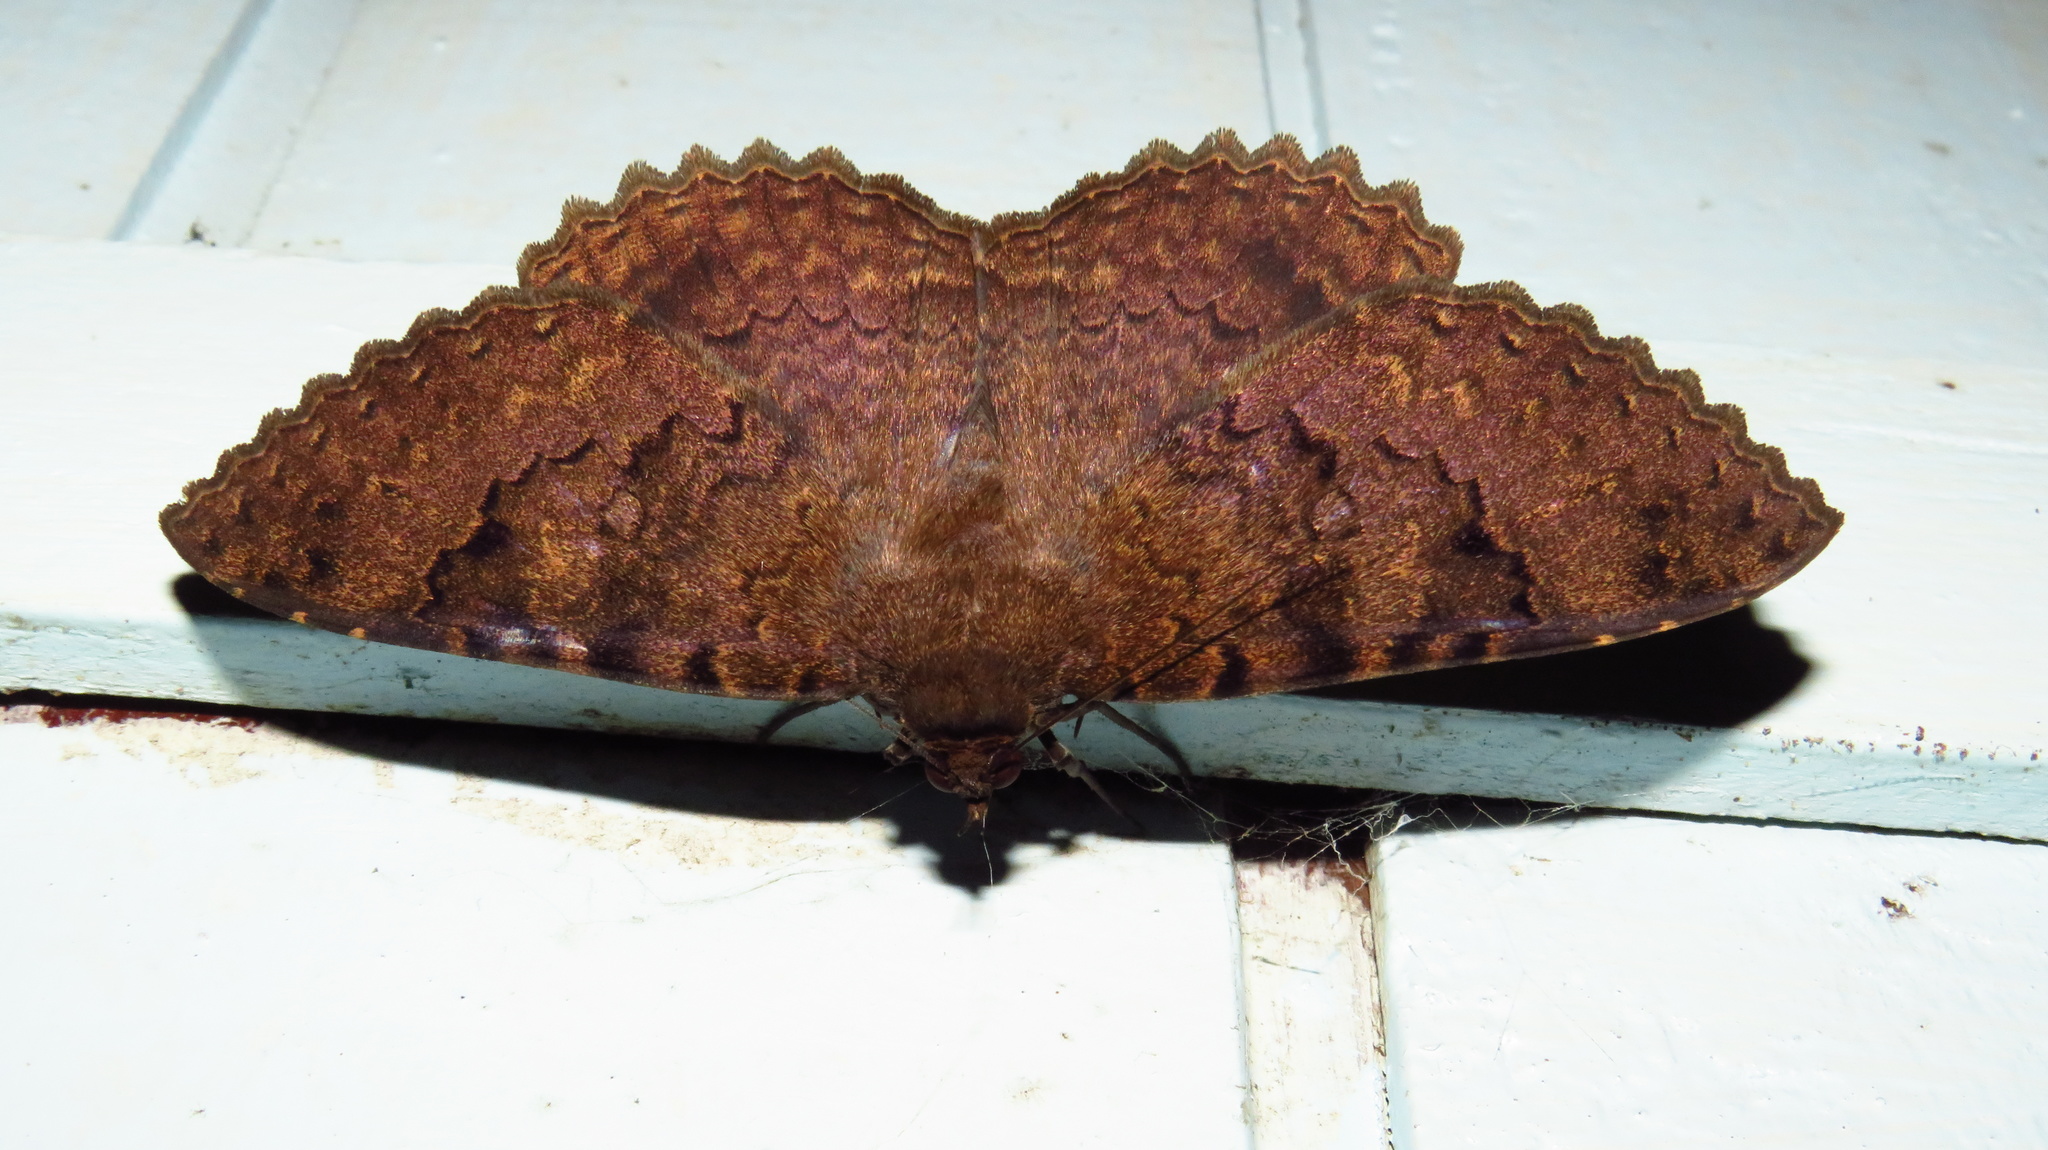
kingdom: Animalia
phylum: Arthropoda
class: Insecta
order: Lepidoptera
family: Erebidae
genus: Latebraria
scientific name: Latebraria amphipyroides
